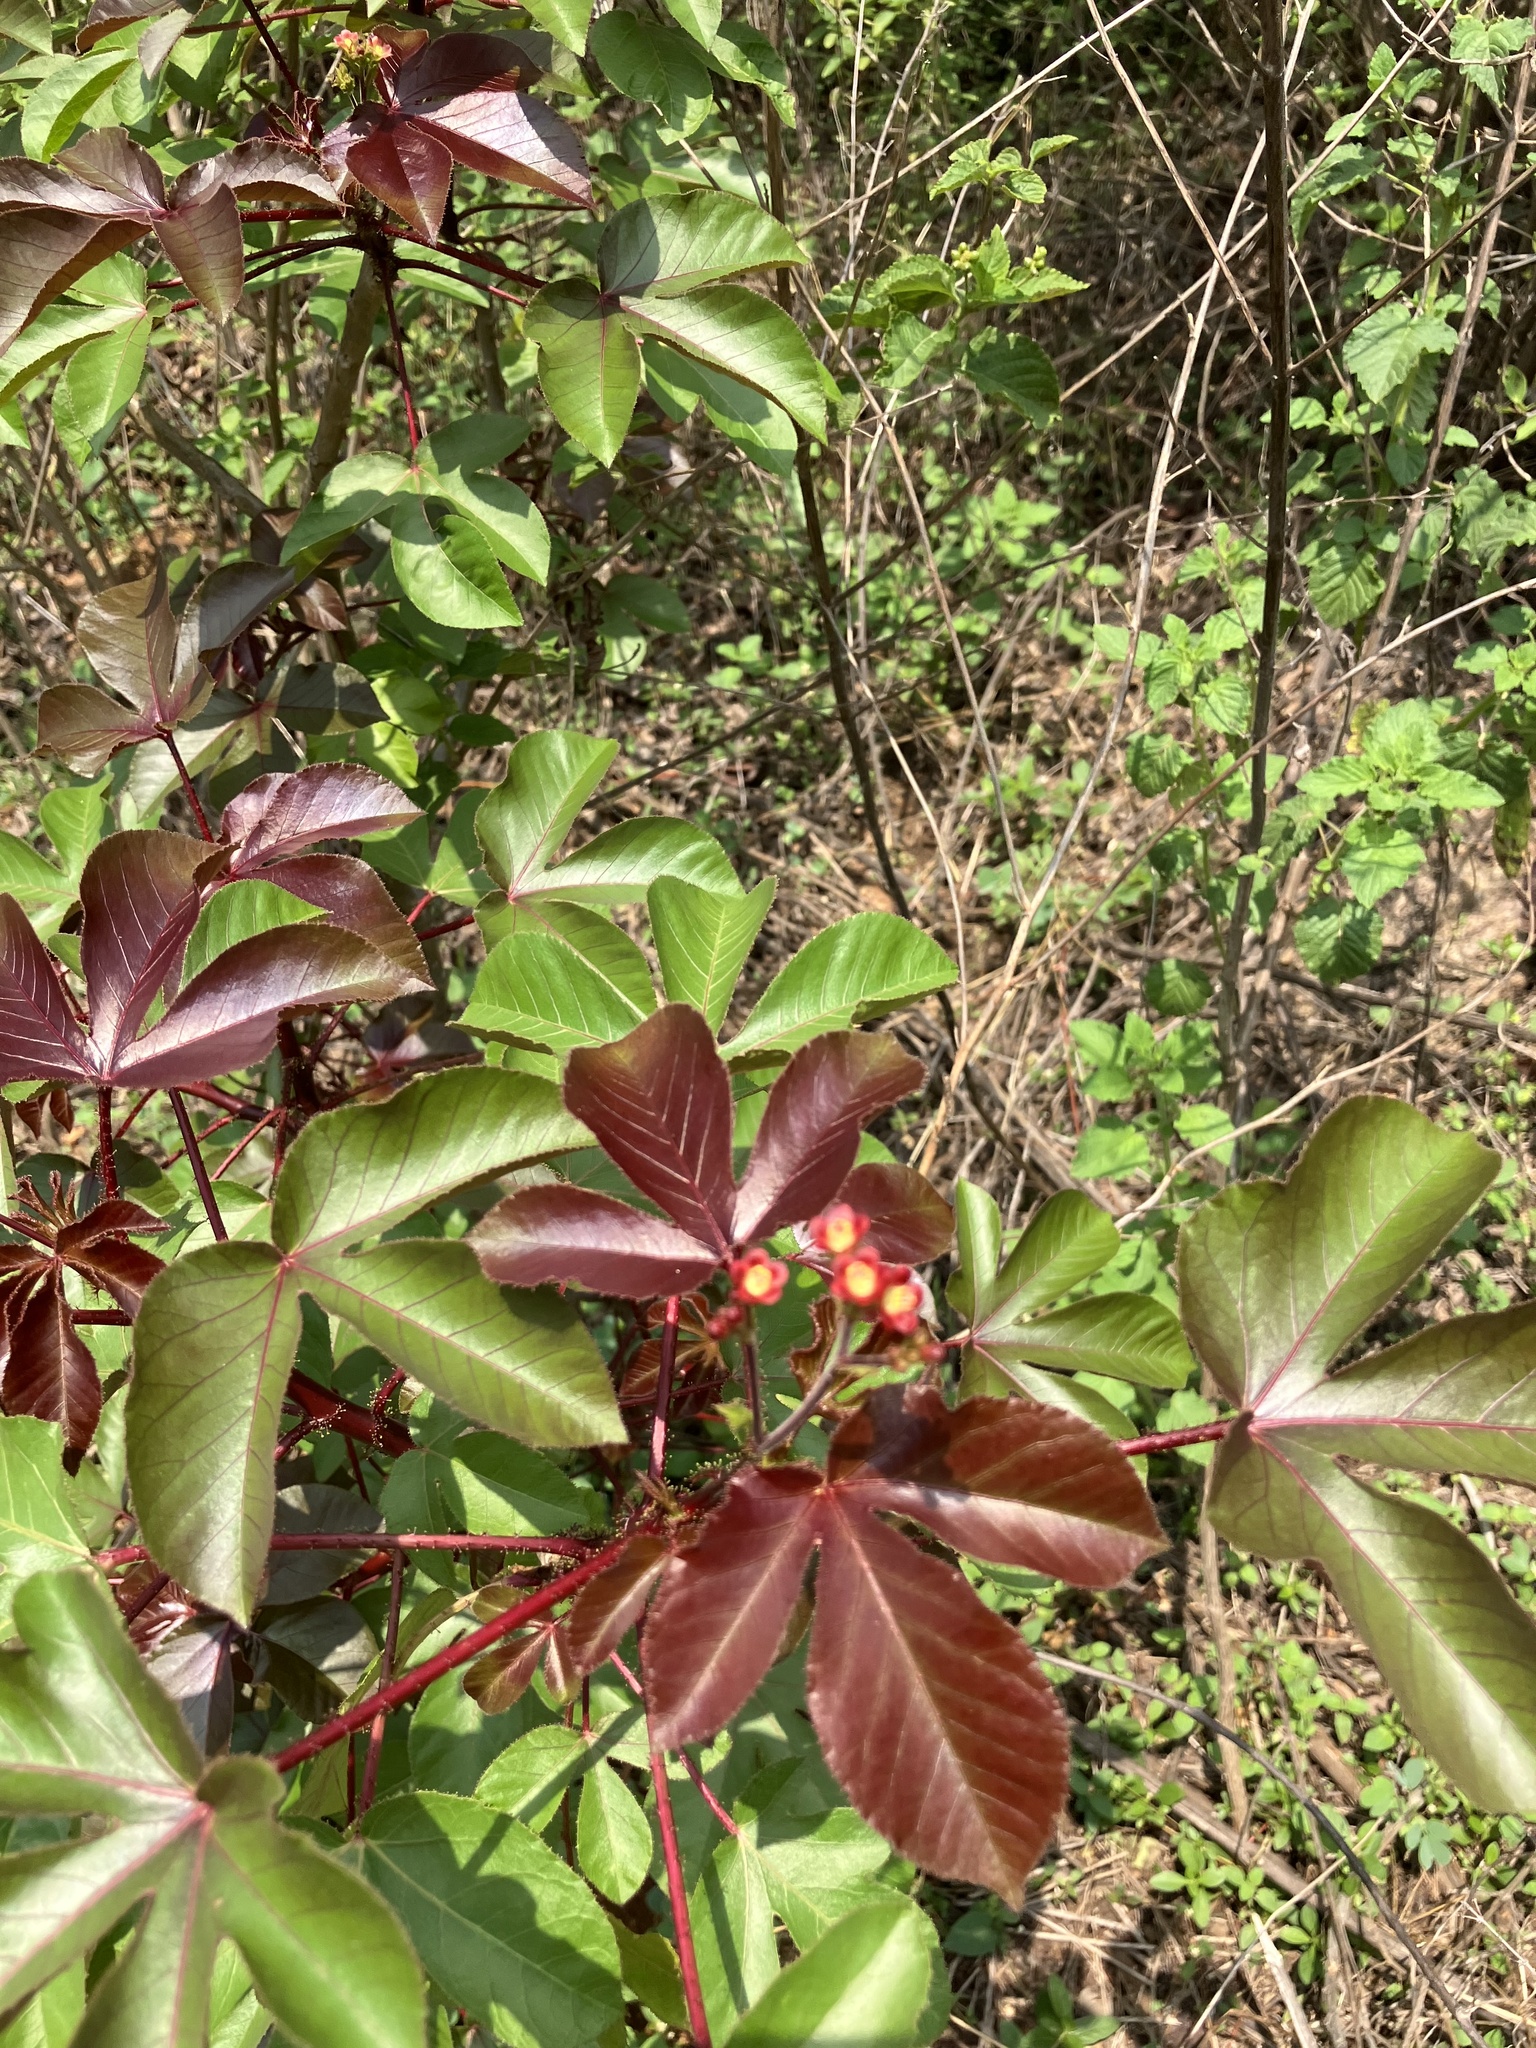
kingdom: Plantae
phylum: Tracheophyta
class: Magnoliopsida
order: Malpighiales
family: Euphorbiaceae
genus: Jatropha
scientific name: Jatropha gossypiifolia
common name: Bellyache bush
